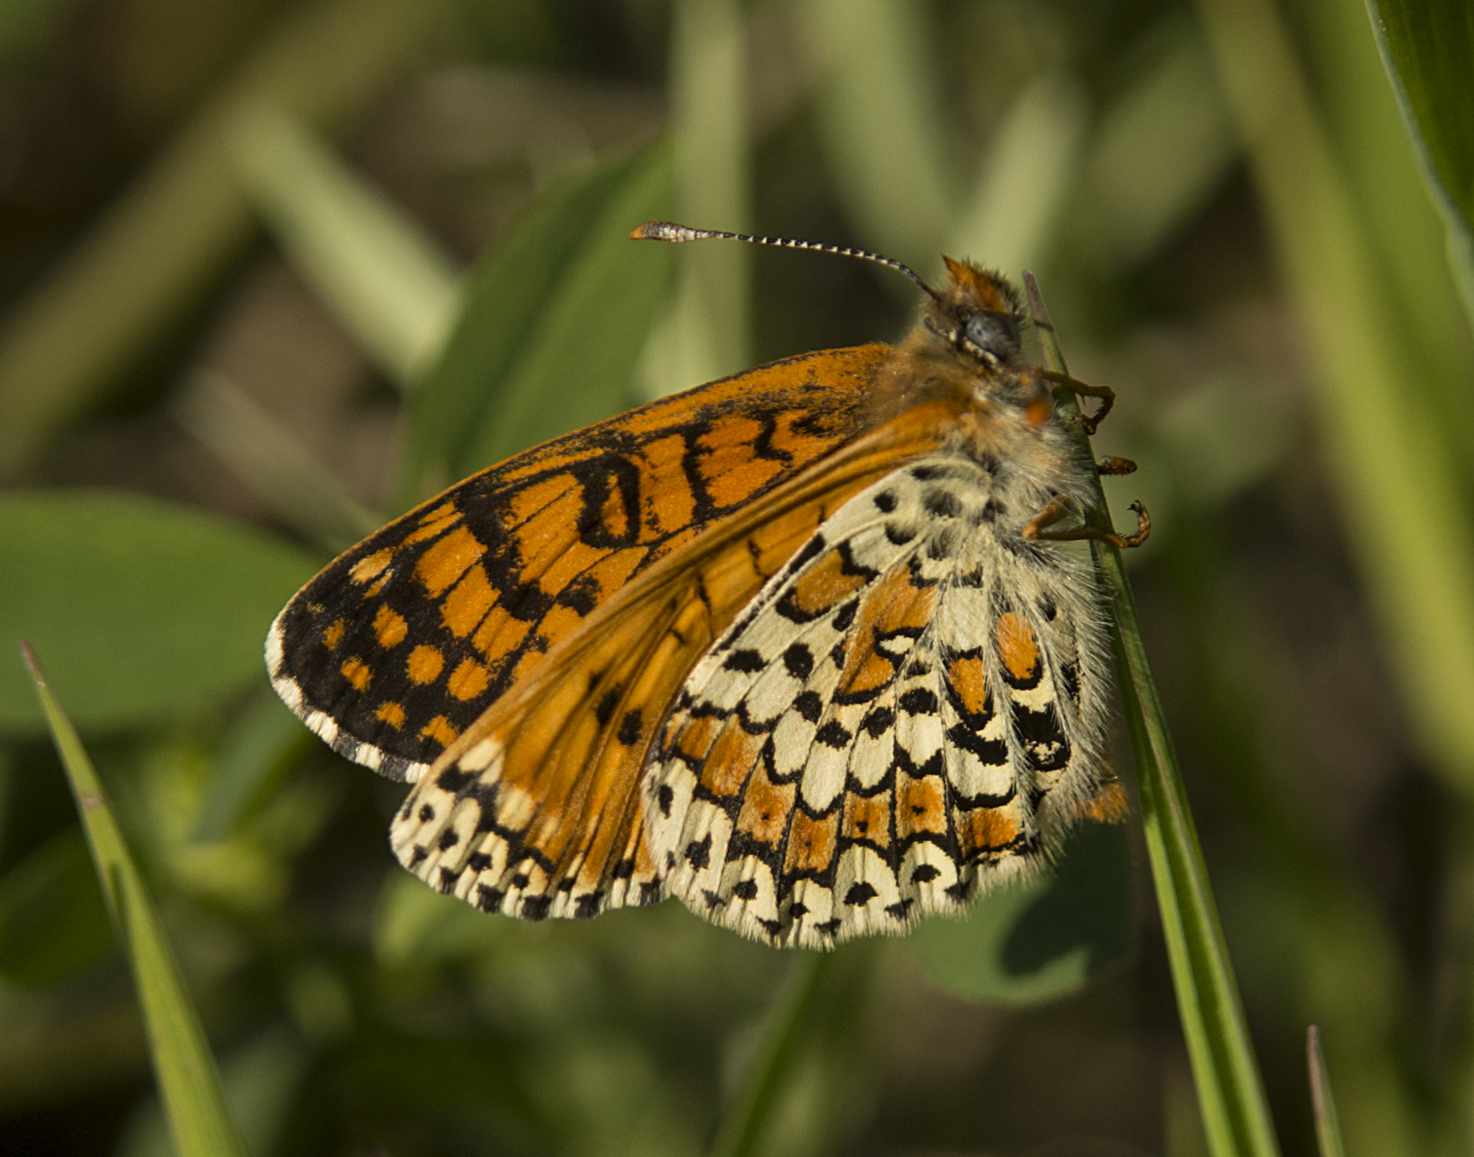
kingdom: Animalia
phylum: Arthropoda
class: Insecta
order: Lepidoptera
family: Nymphalidae
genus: Melitaea
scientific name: Melitaea cinxia
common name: Glanville fritillary
